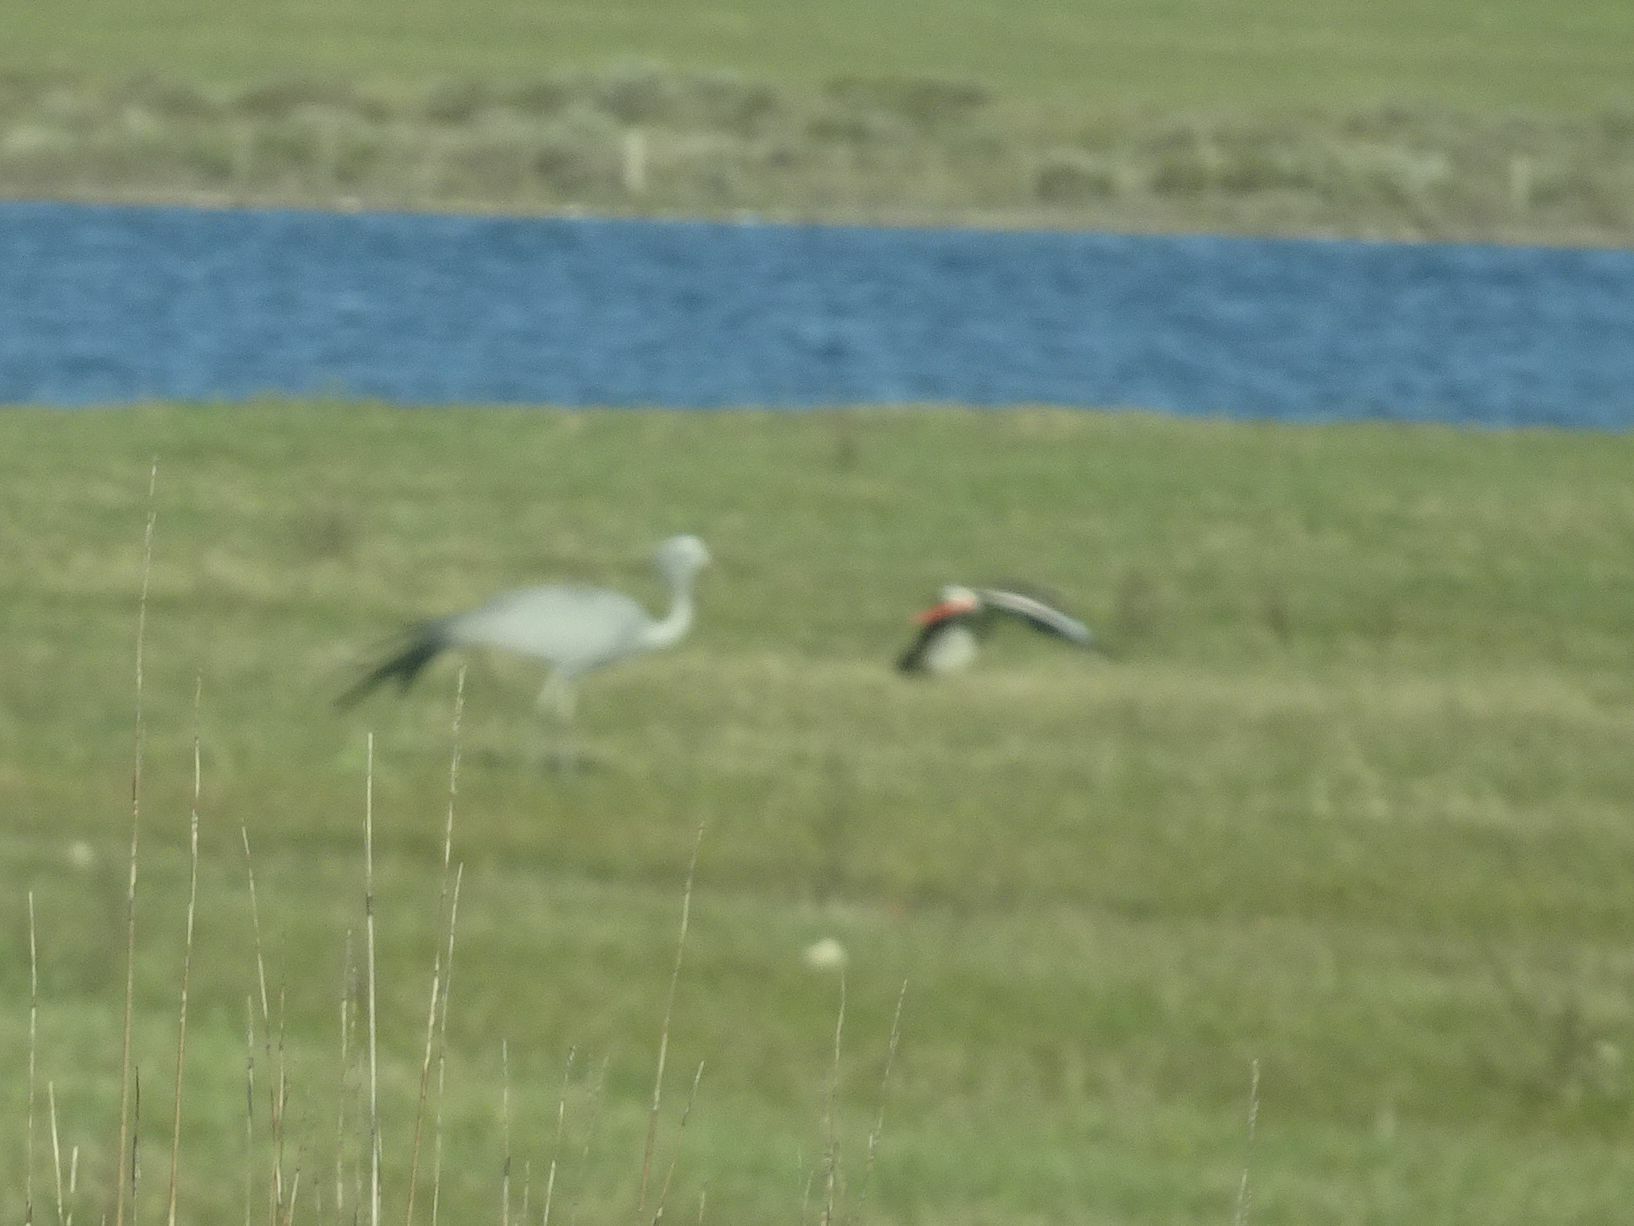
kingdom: Animalia
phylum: Chordata
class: Aves
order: Charadriiformes
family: Charadriidae
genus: Vanellus
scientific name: Vanellus coronatus
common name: Crowned lapwing
